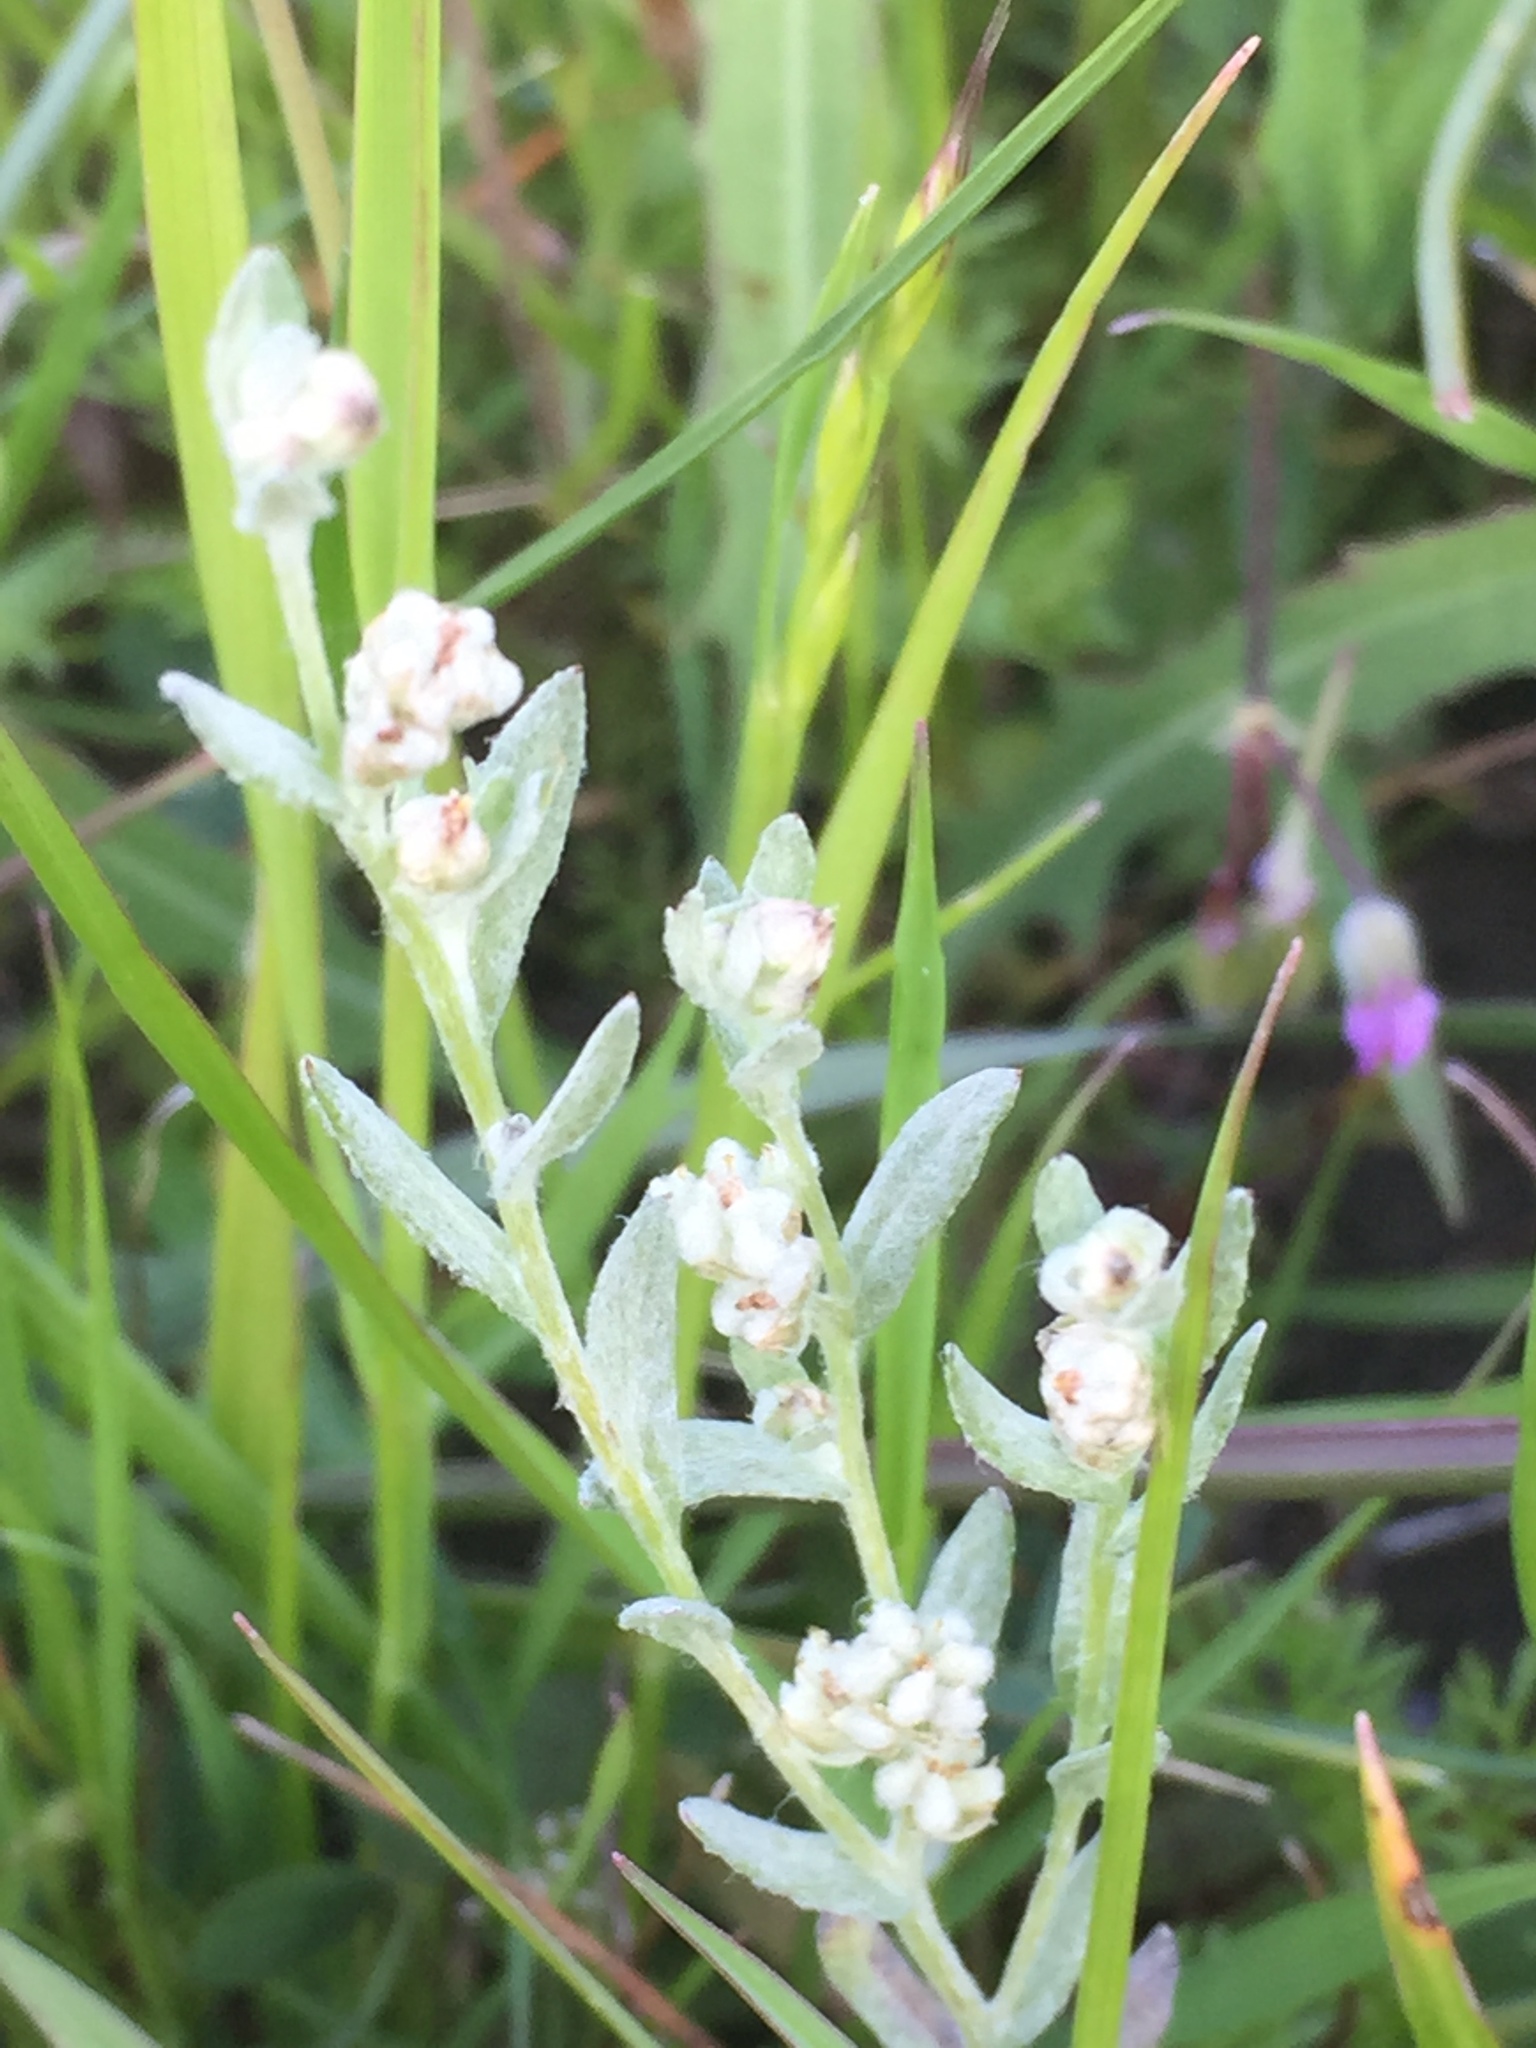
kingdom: Plantae
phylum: Tracheophyta
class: Magnoliopsida
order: Asterales
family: Asteraceae
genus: Bombycilaena
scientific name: Bombycilaena californica
